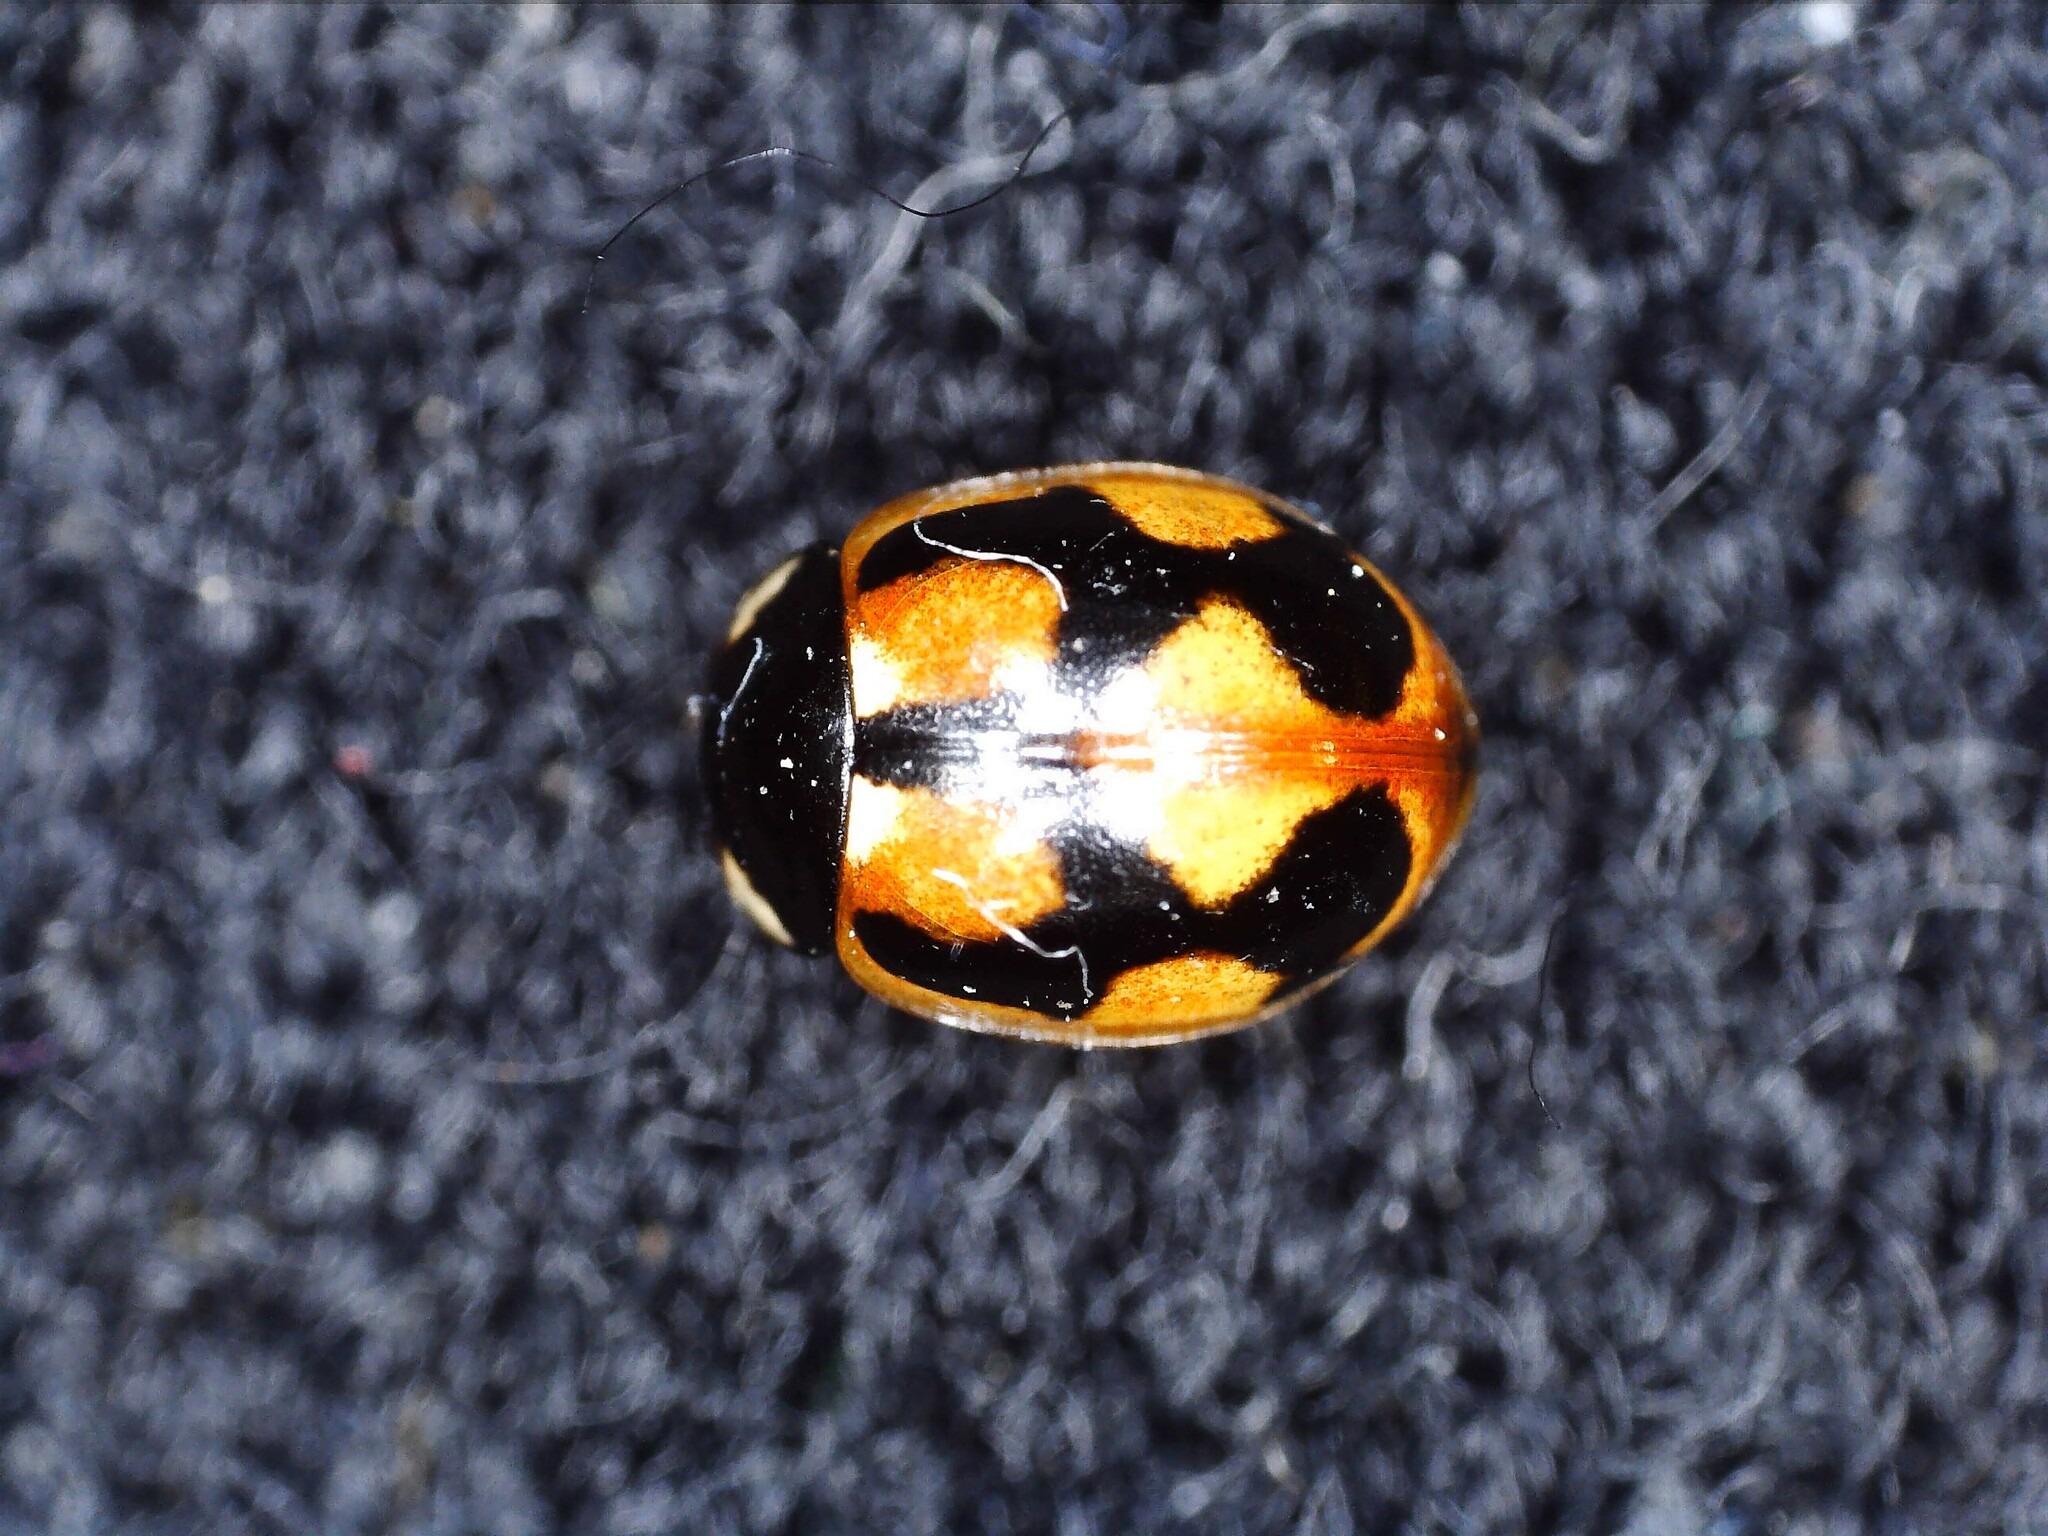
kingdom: Animalia
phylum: Arthropoda
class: Insecta
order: Coleoptera
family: Coccinellidae
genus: Coccinella
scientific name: Coccinella hieroglyphica
